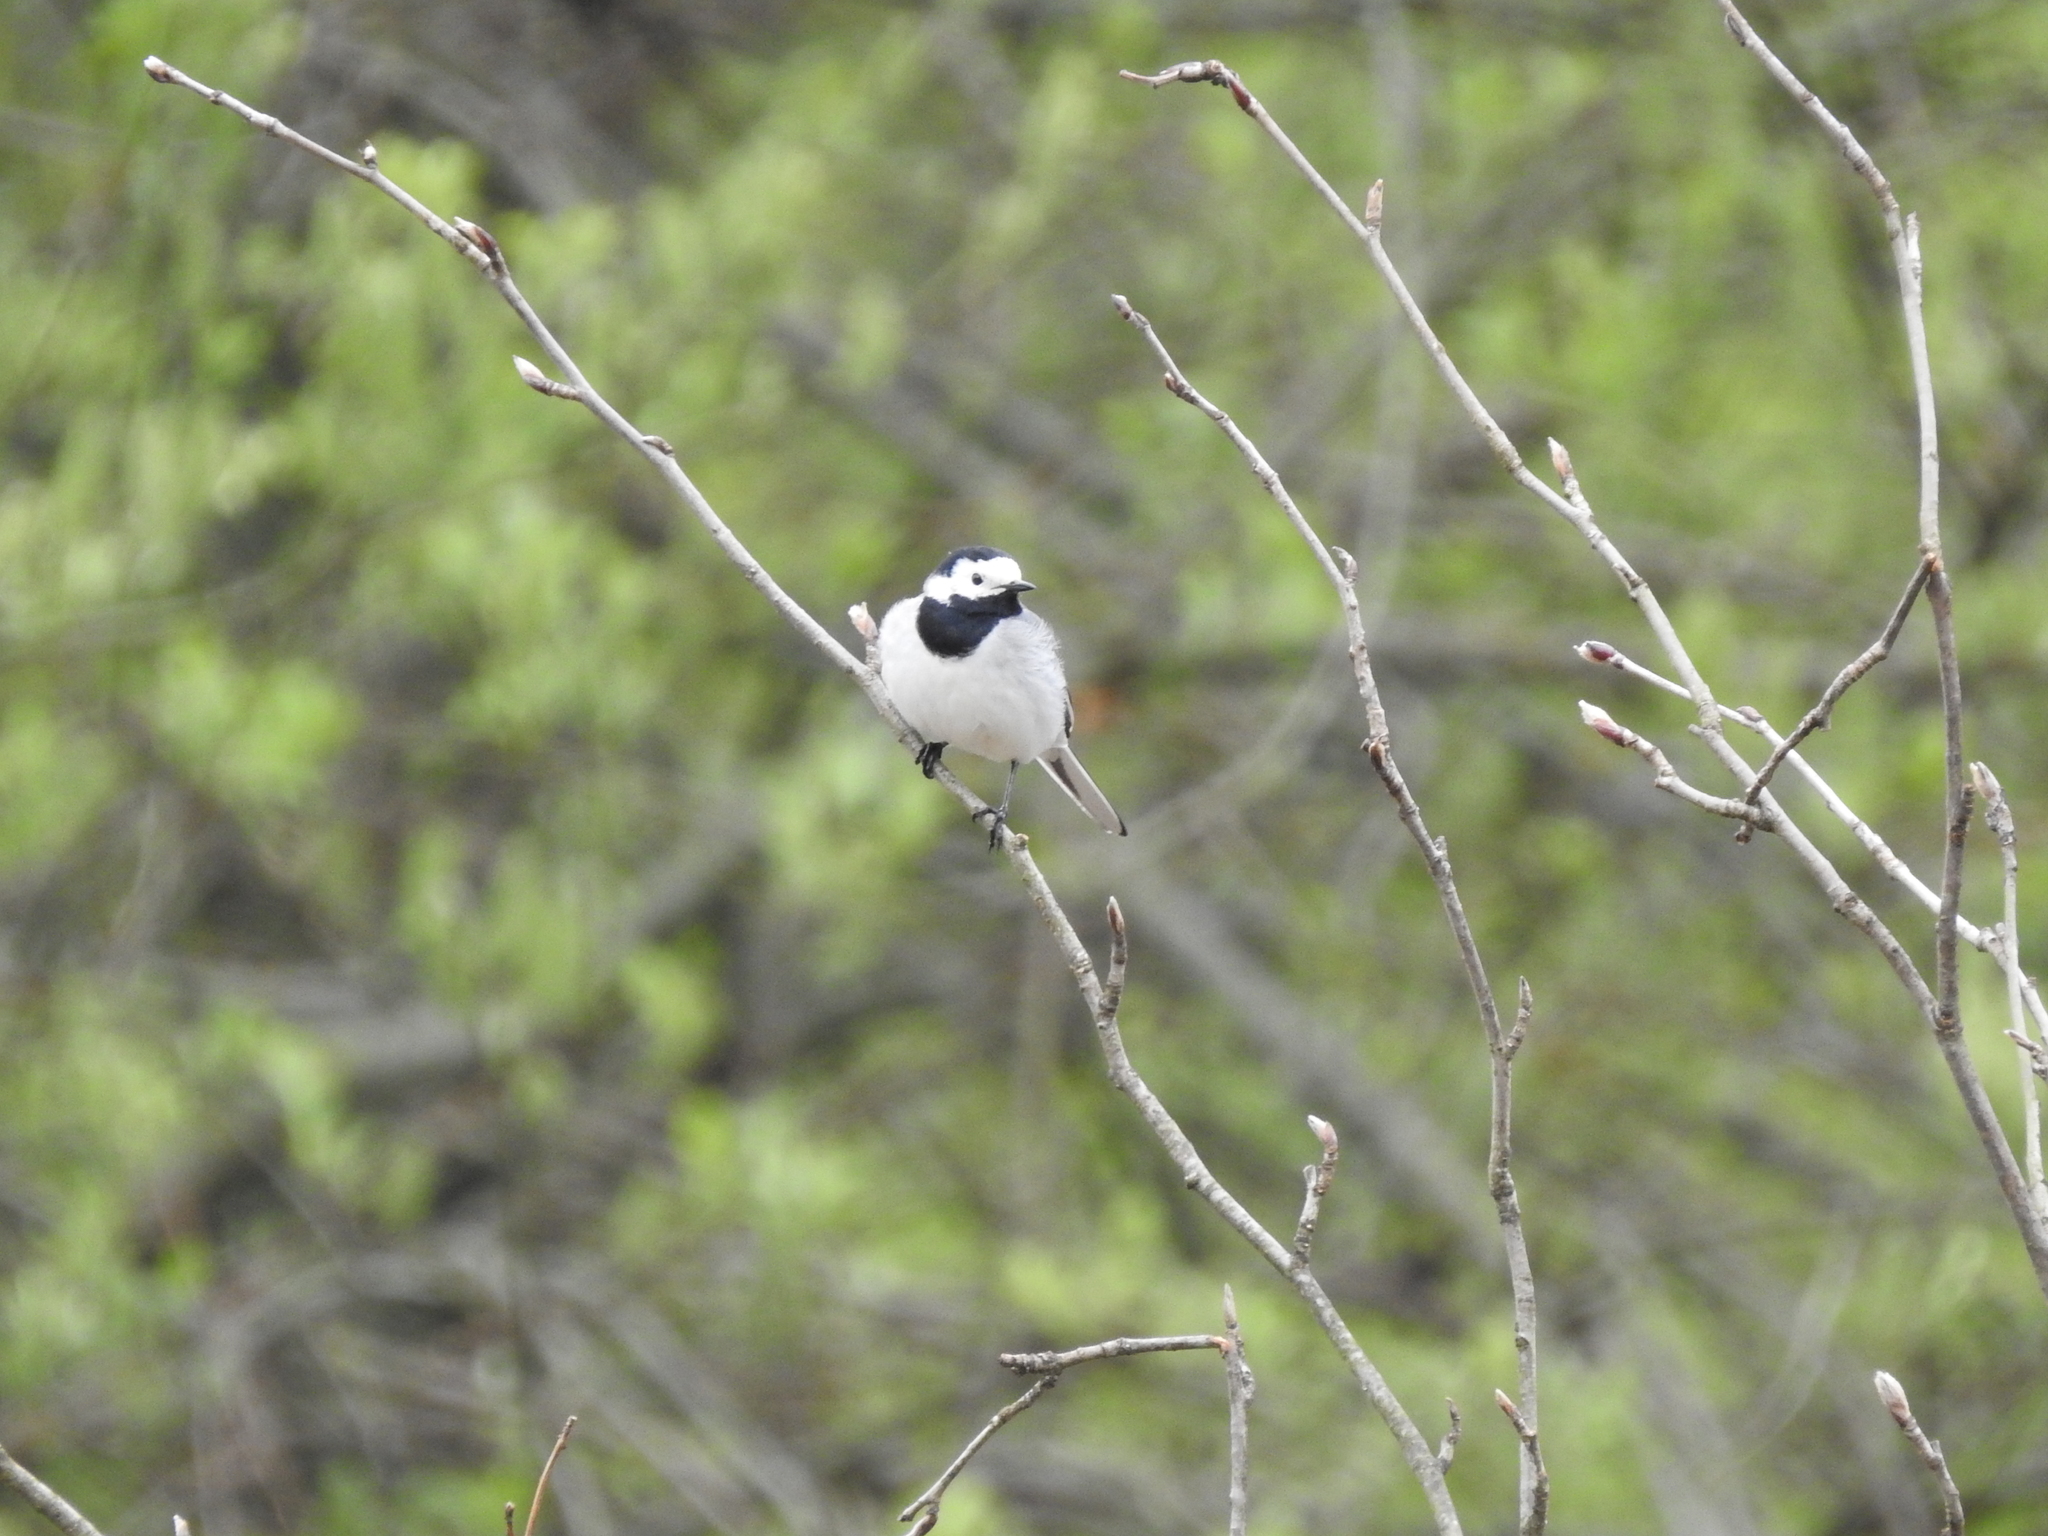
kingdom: Animalia
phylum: Chordata
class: Aves
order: Passeriformes
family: Motacillidae
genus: Motacilla
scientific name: Motacilla alba
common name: White wagtail
